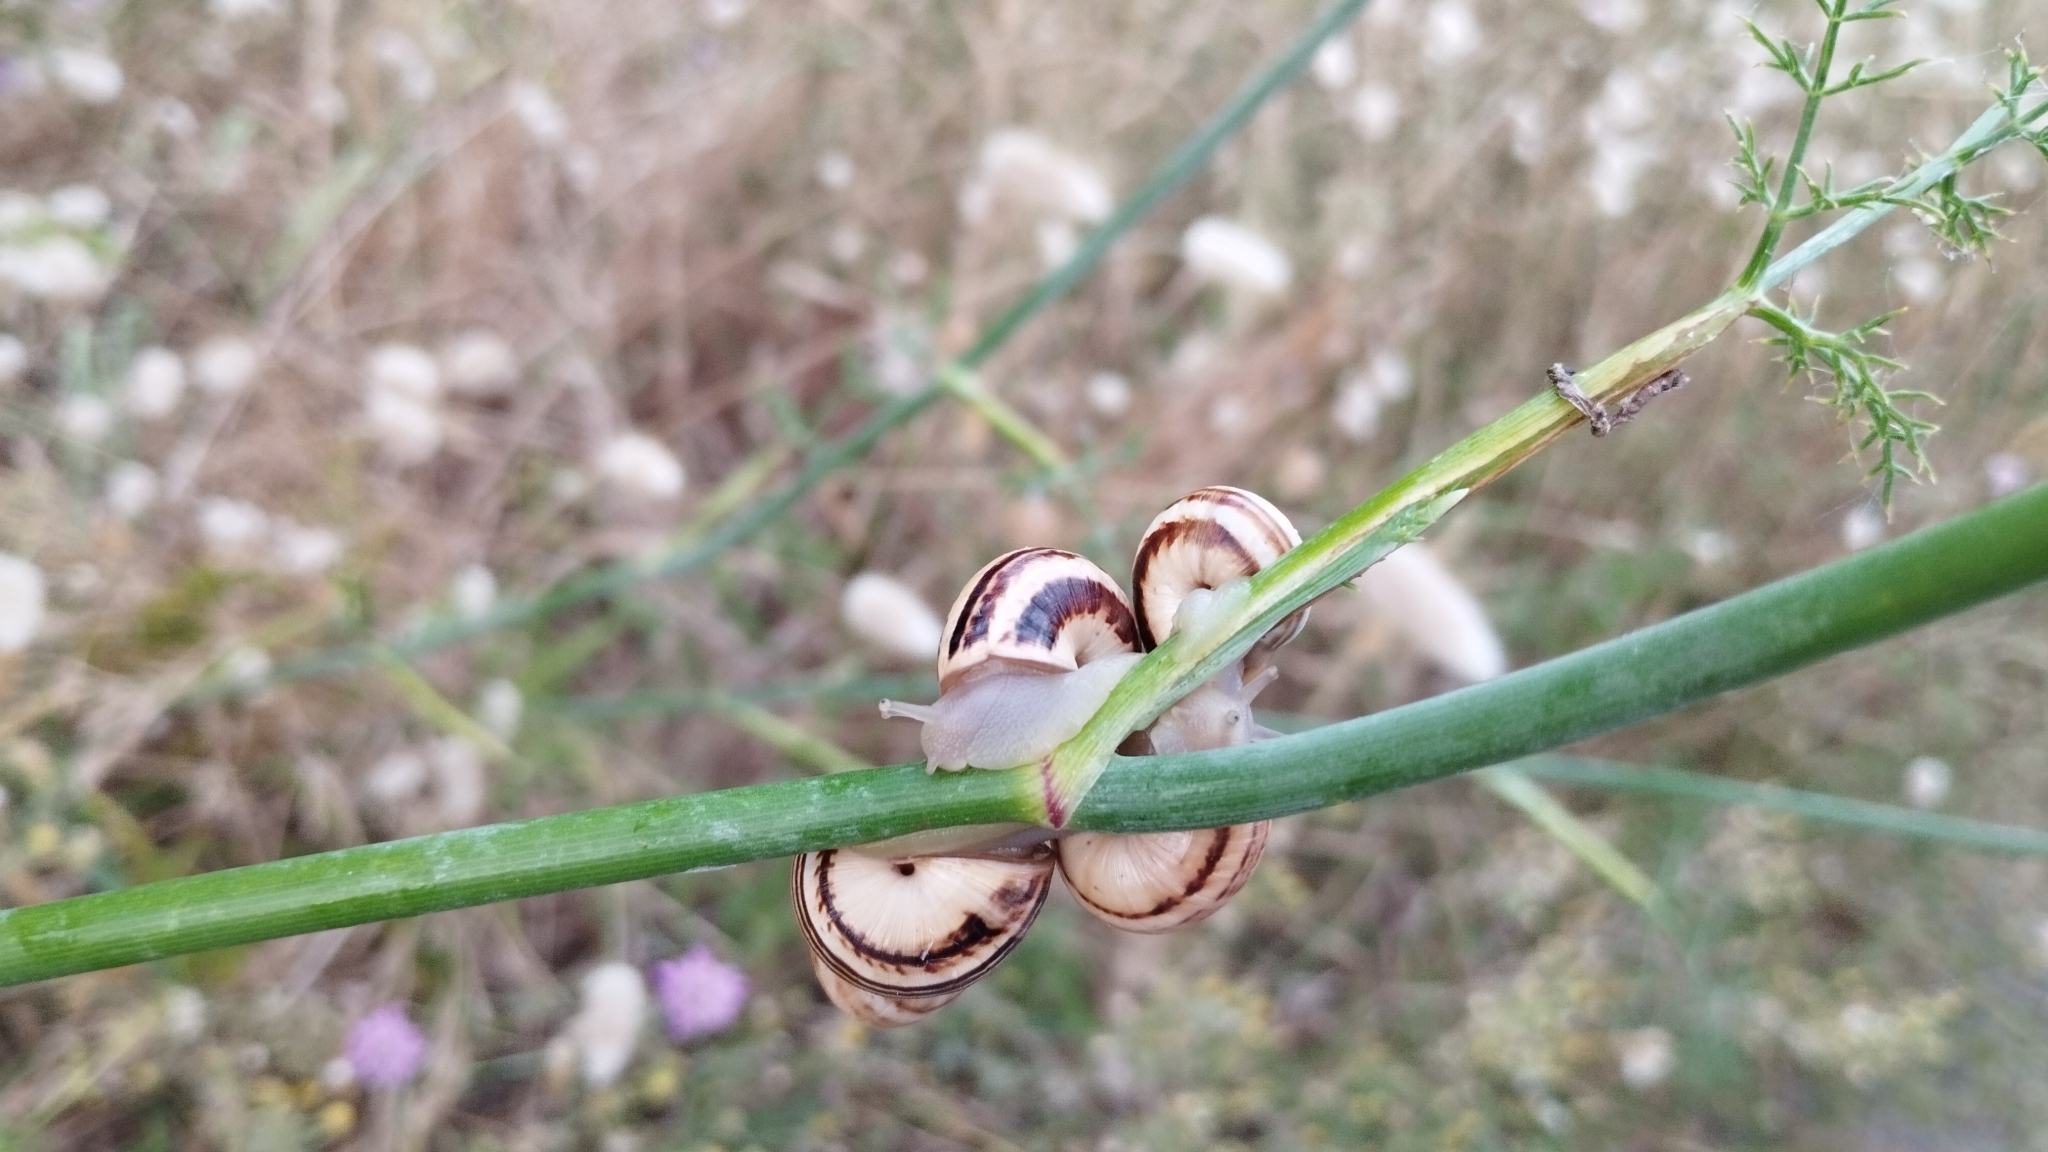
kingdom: Animalia
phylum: Mollusca
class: Gastropoda
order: Stylommatophora
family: Helicidae
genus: Theba
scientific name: Theba pisana
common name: White snail
